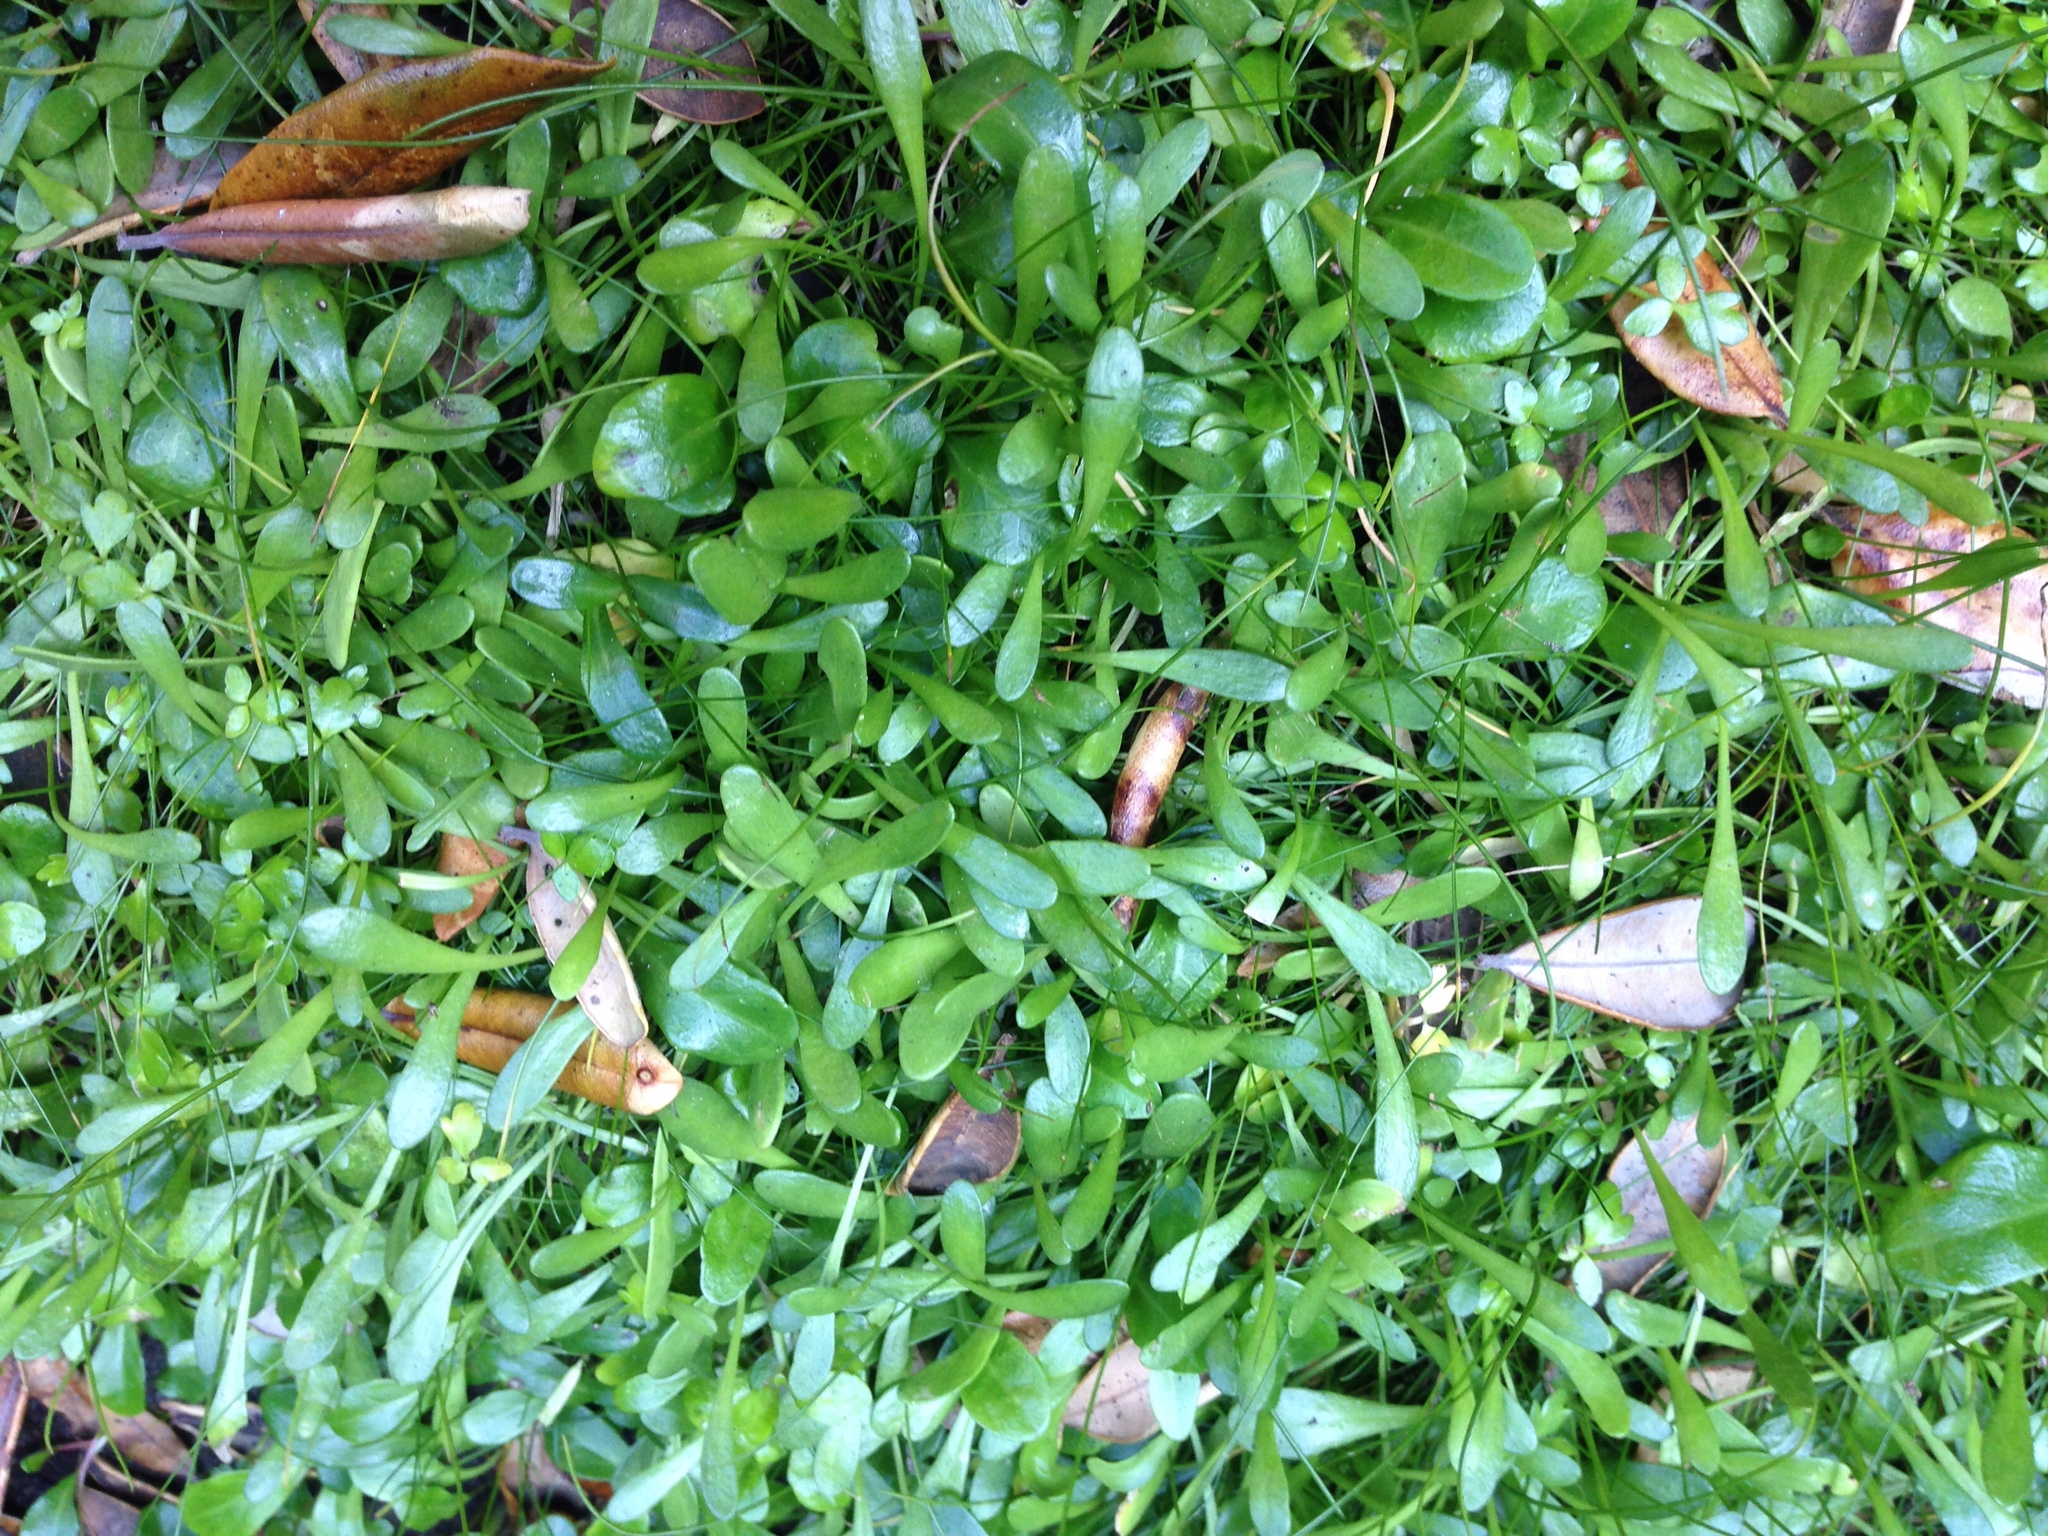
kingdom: Plantae
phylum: Tracheophyta
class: Magnoliopsida
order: Asterales
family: Goodeniaceae
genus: Goodenia
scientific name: Goodenia radicans
